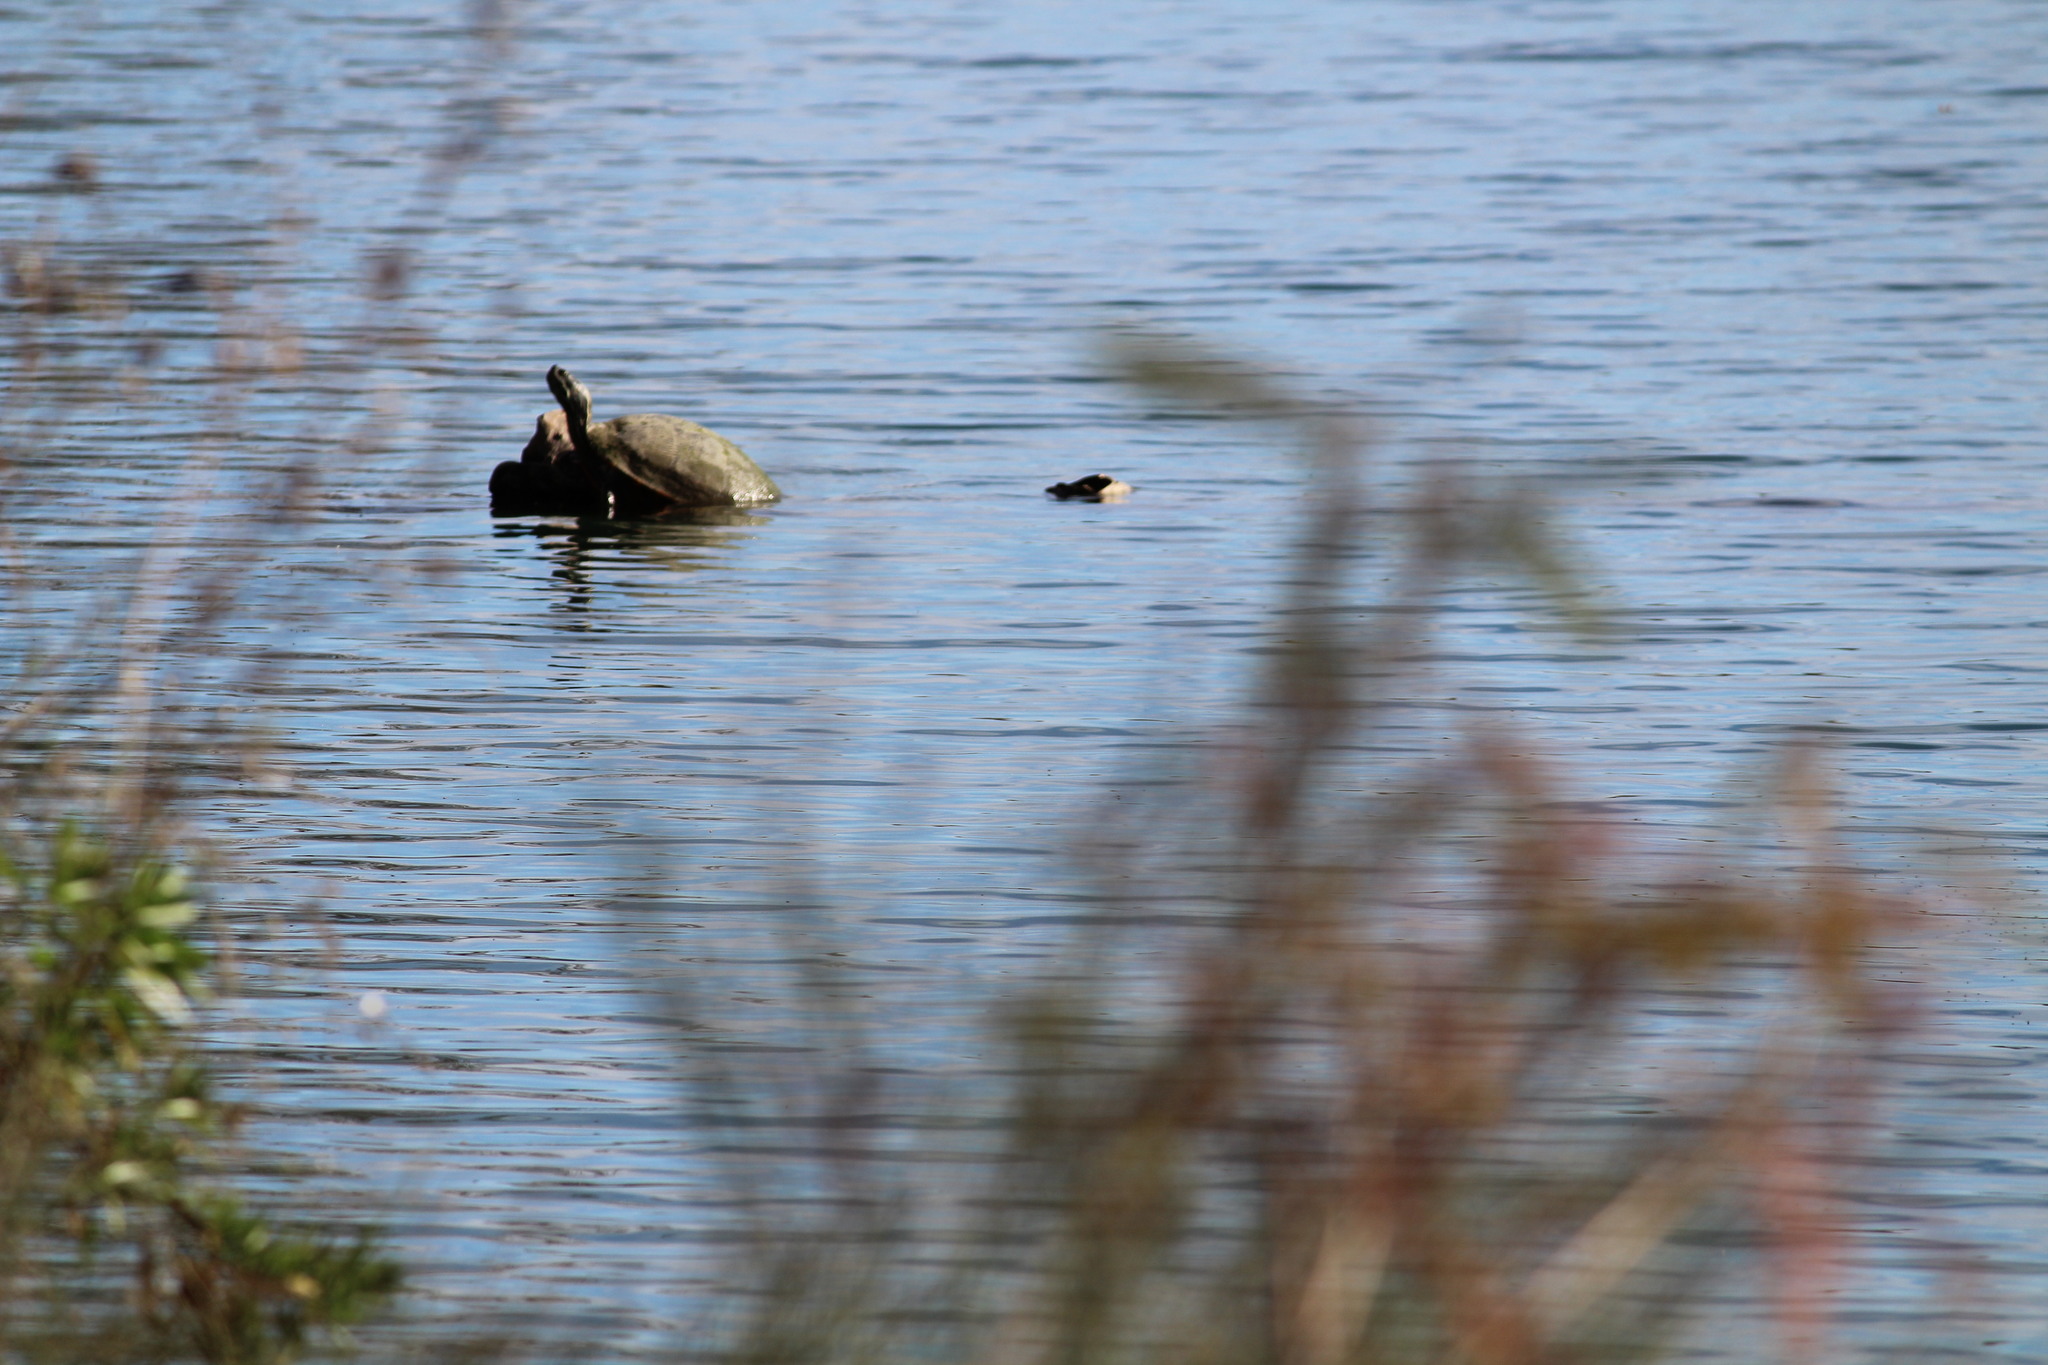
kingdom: Animalia
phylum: Chordata
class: Testudines
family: Emydidae
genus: Pseudemys
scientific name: Pseudemys gorzugi
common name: Rio grande cooter
